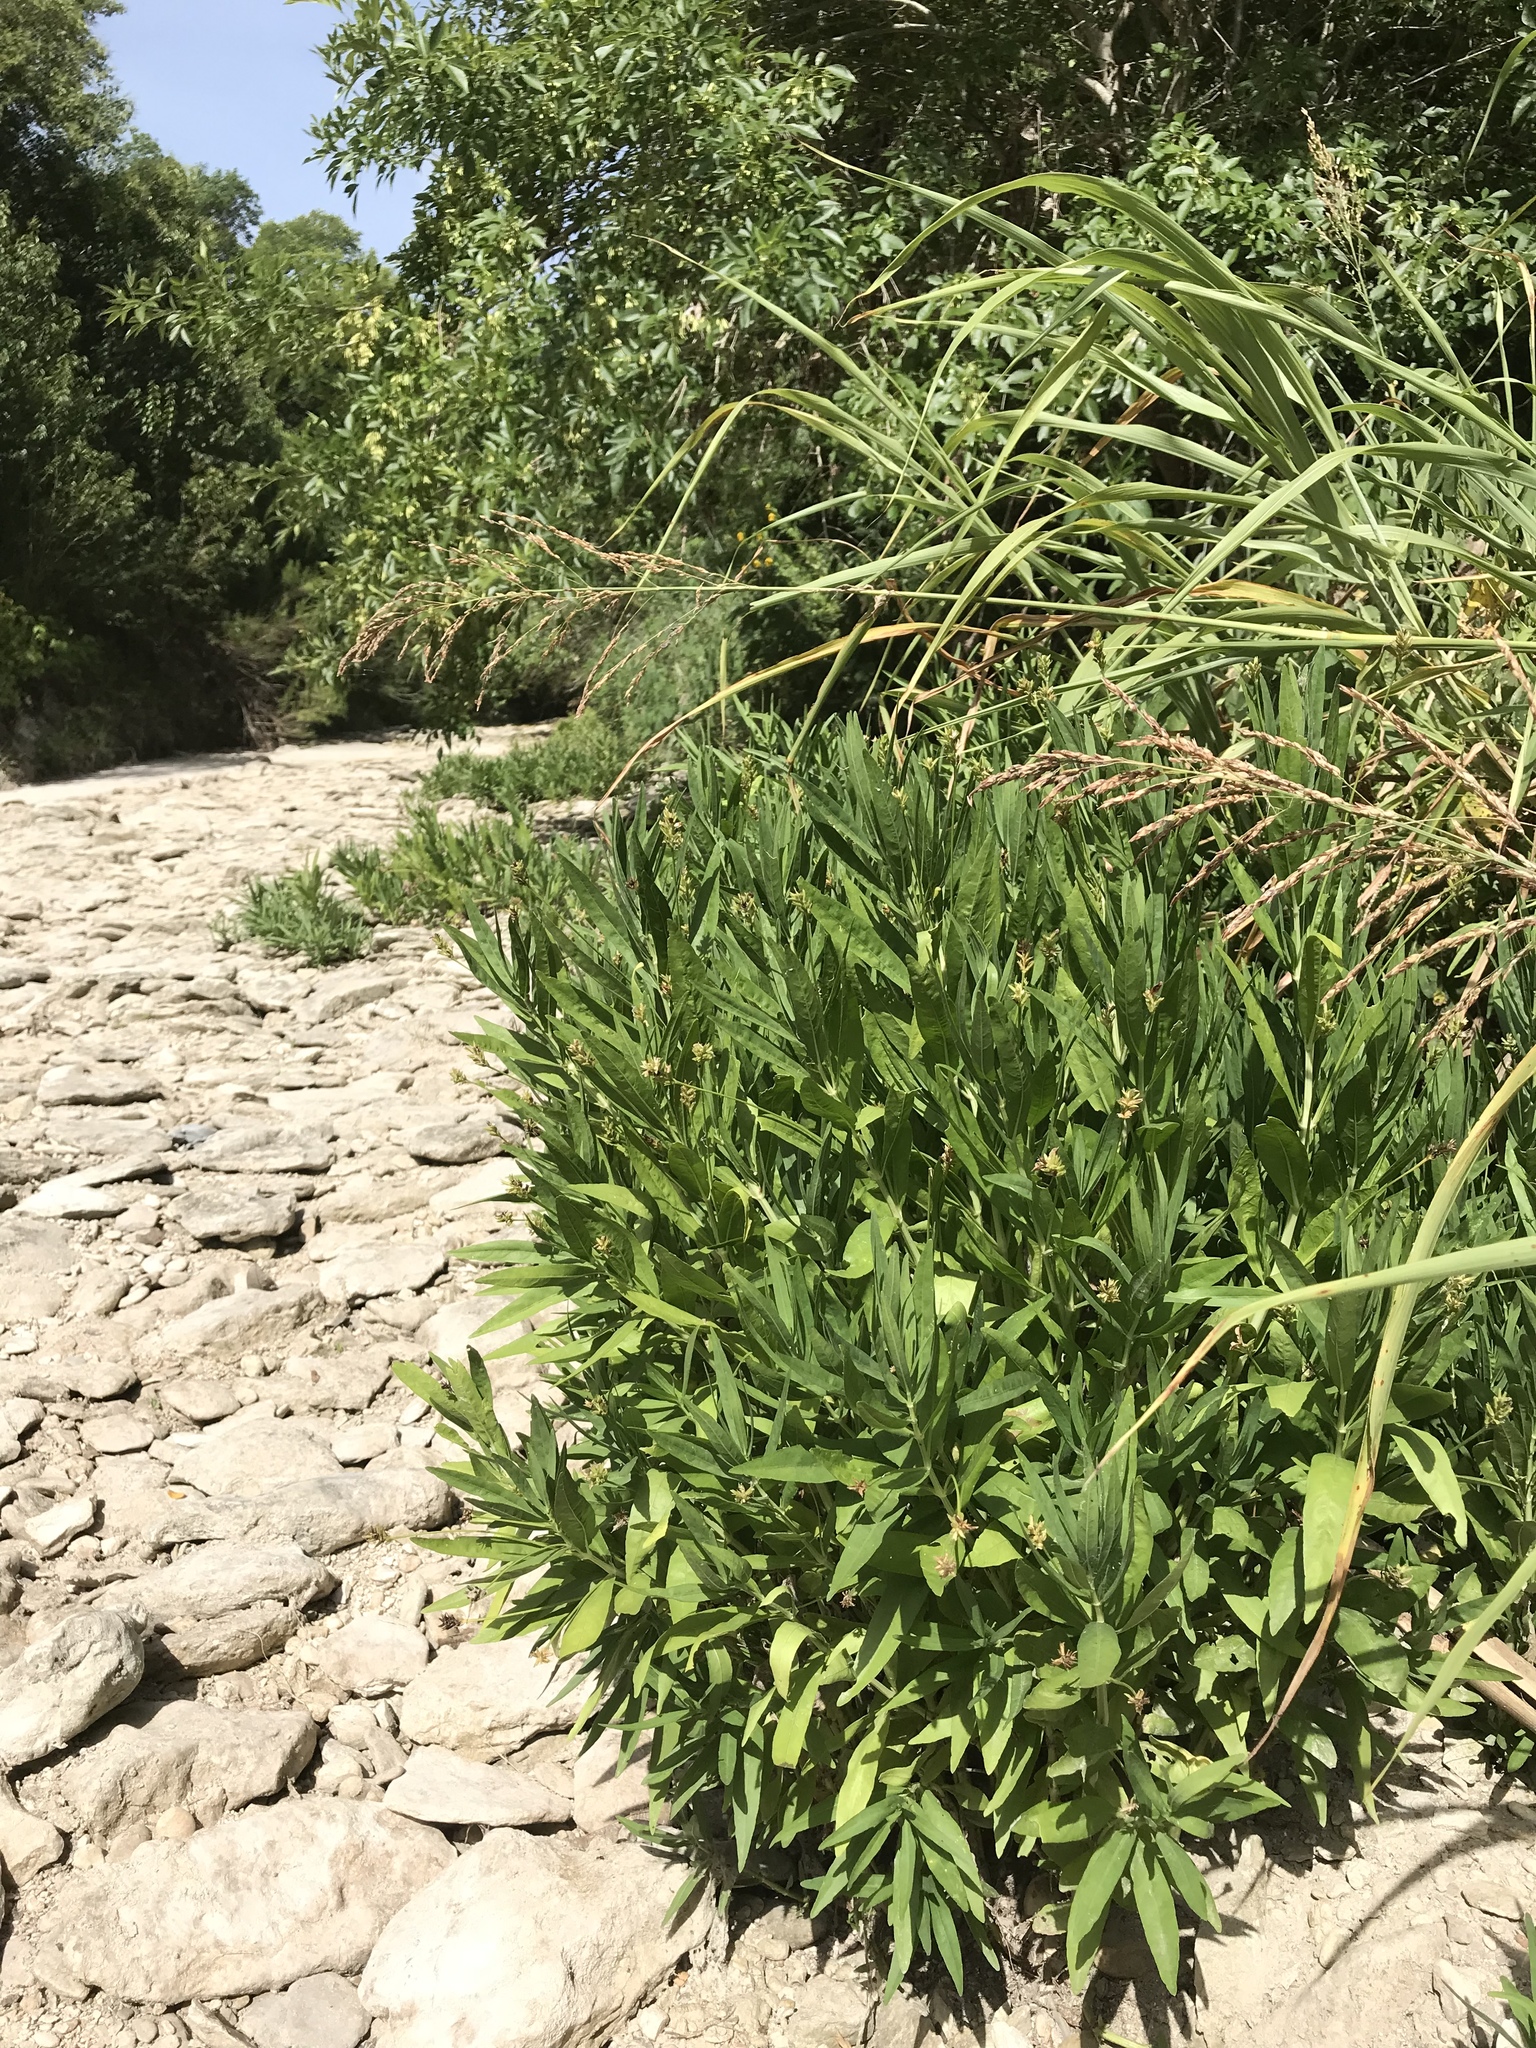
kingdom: Plantae
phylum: Tracheophyta
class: Magnoliopsida
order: Lamiales
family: Acanthaceae
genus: Dianthera
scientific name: Dianthera americana
